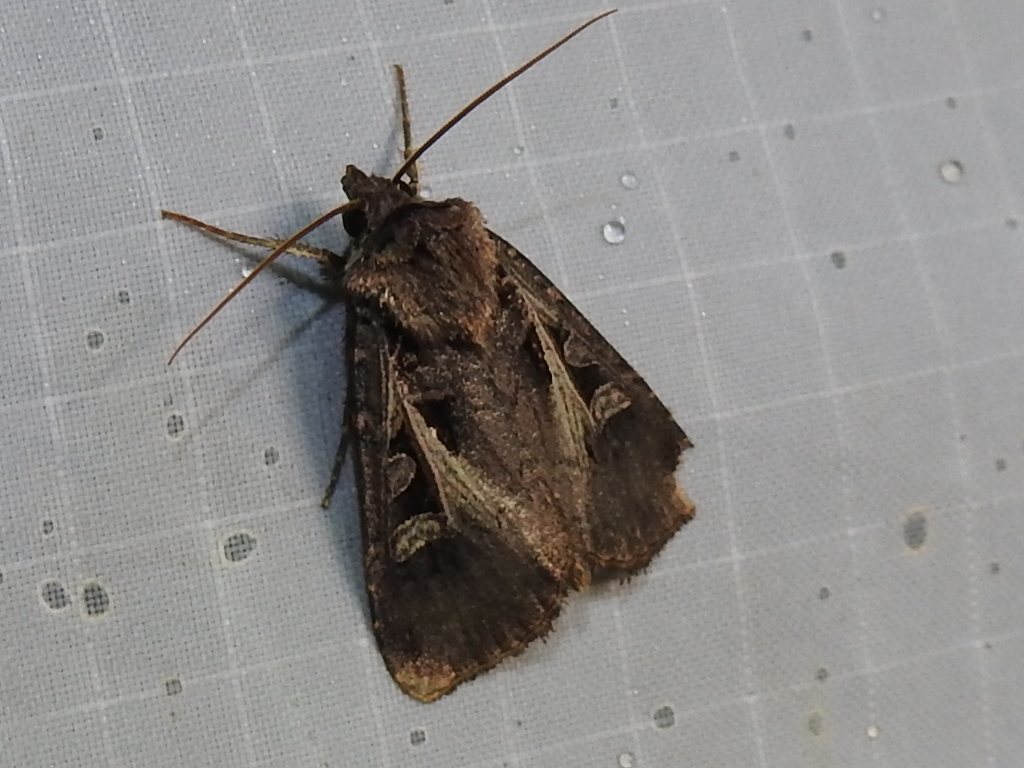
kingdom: Animalia
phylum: Arthropoda
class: Insecta
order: Lepidoptera
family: Noctuidae
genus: Feltia
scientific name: Feltia herilis
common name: Master's dart
